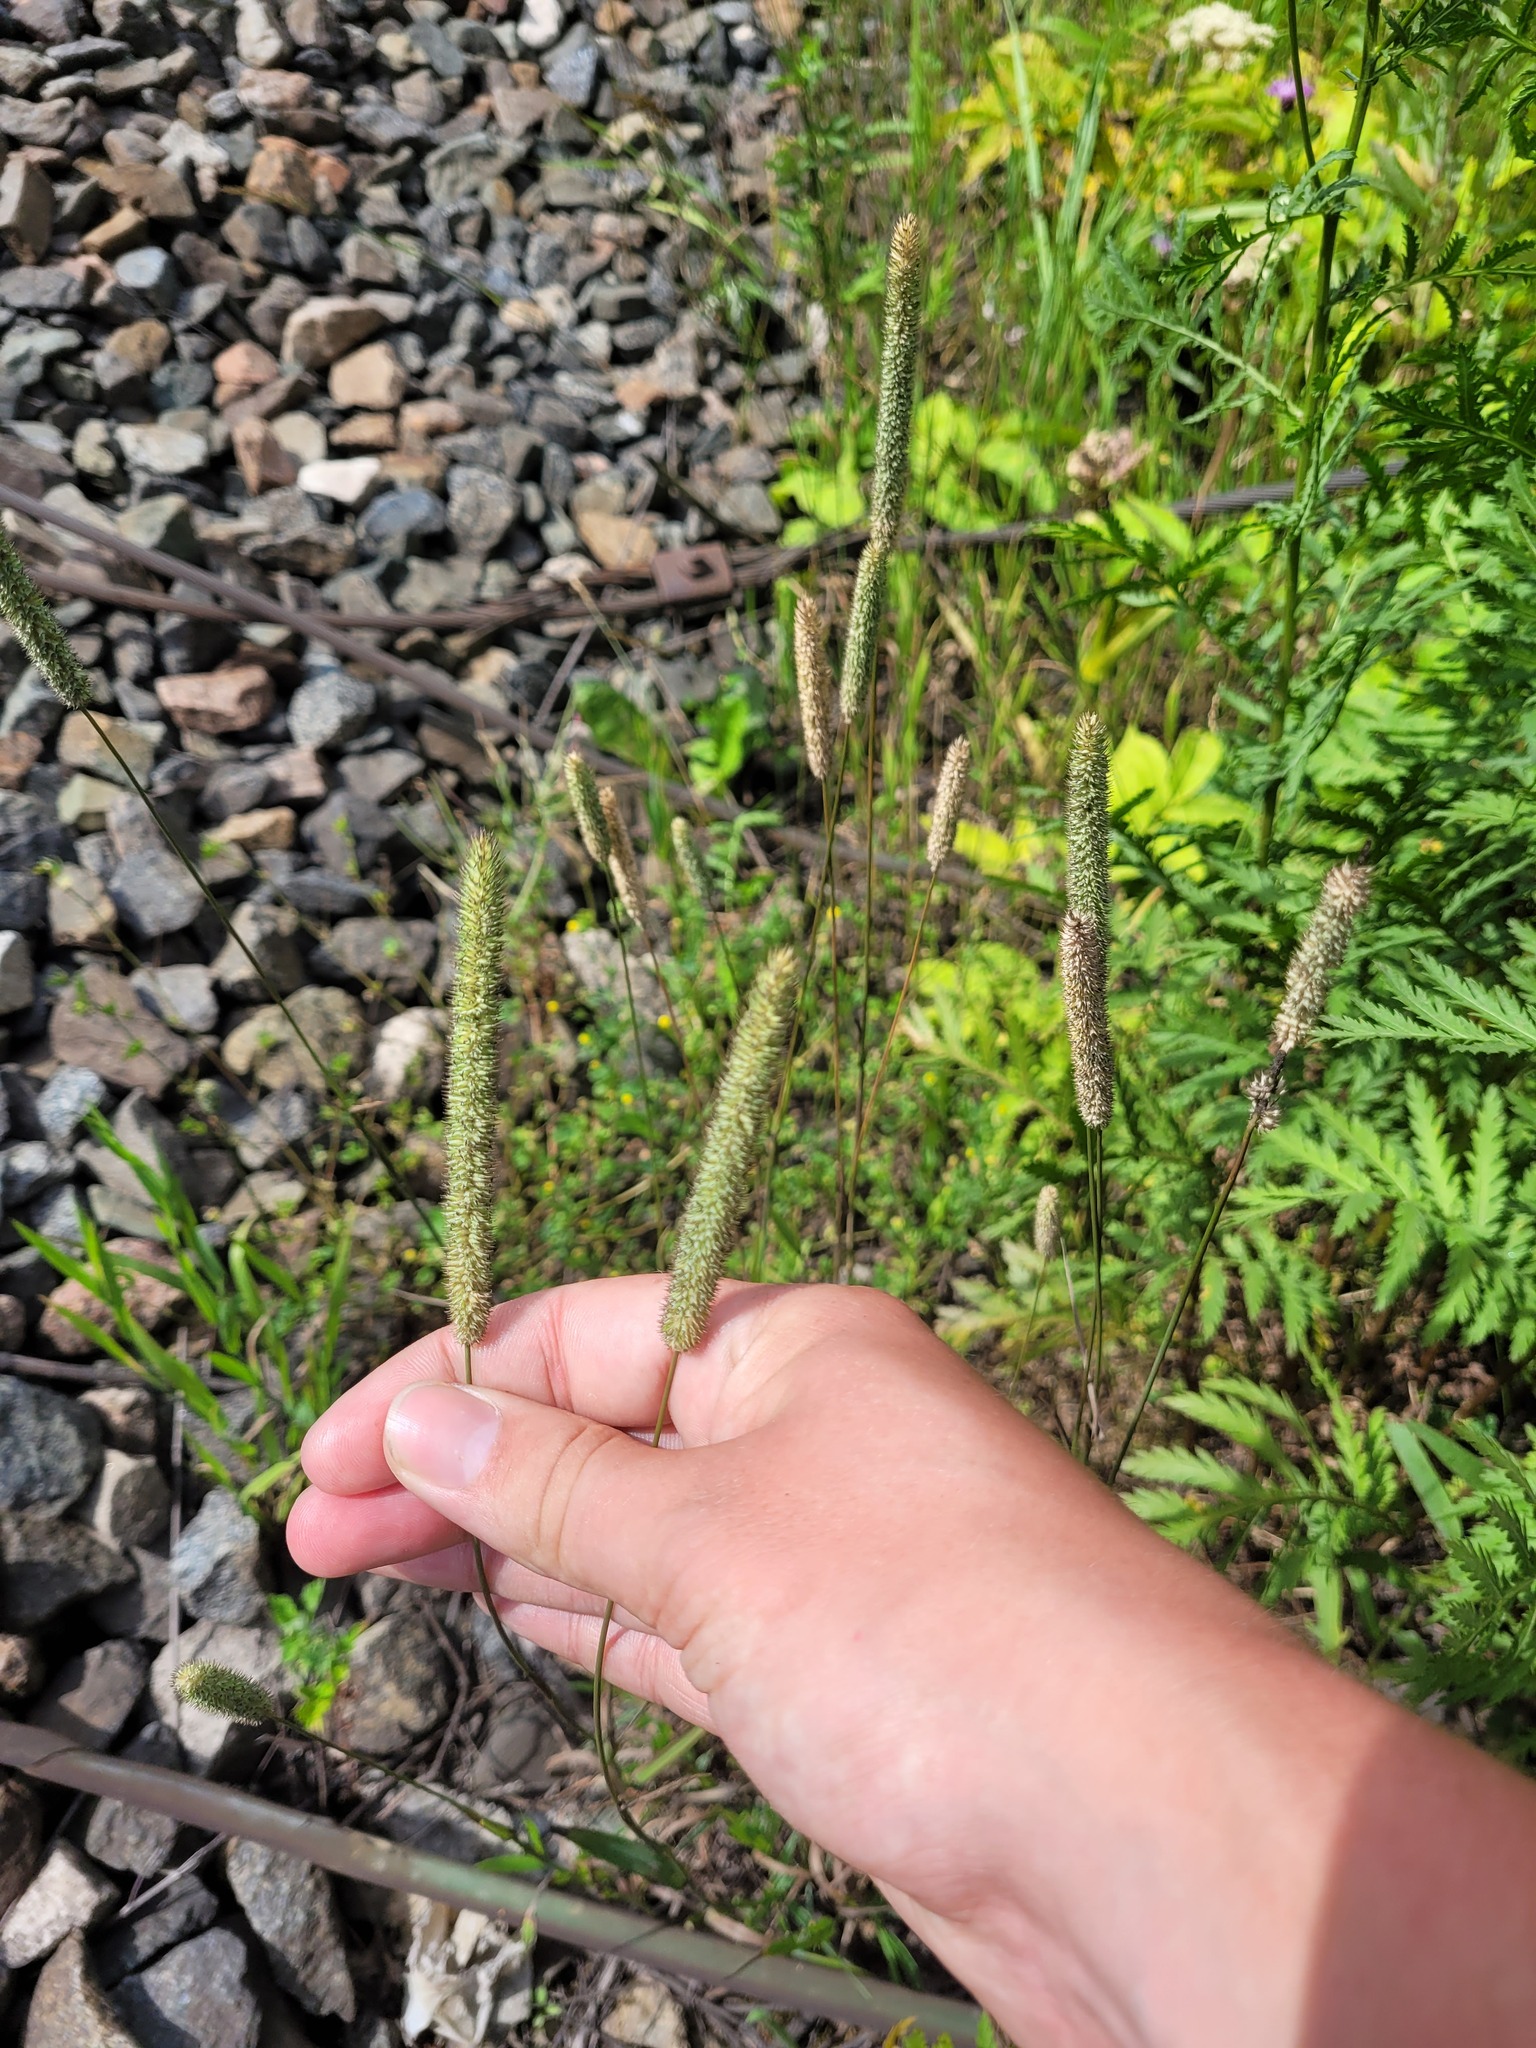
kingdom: Plantae
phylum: Tracheophyta
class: Liliopsida
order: Poales
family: Poaceae
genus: Phleum
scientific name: Phleum pratense
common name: Timothy grass
